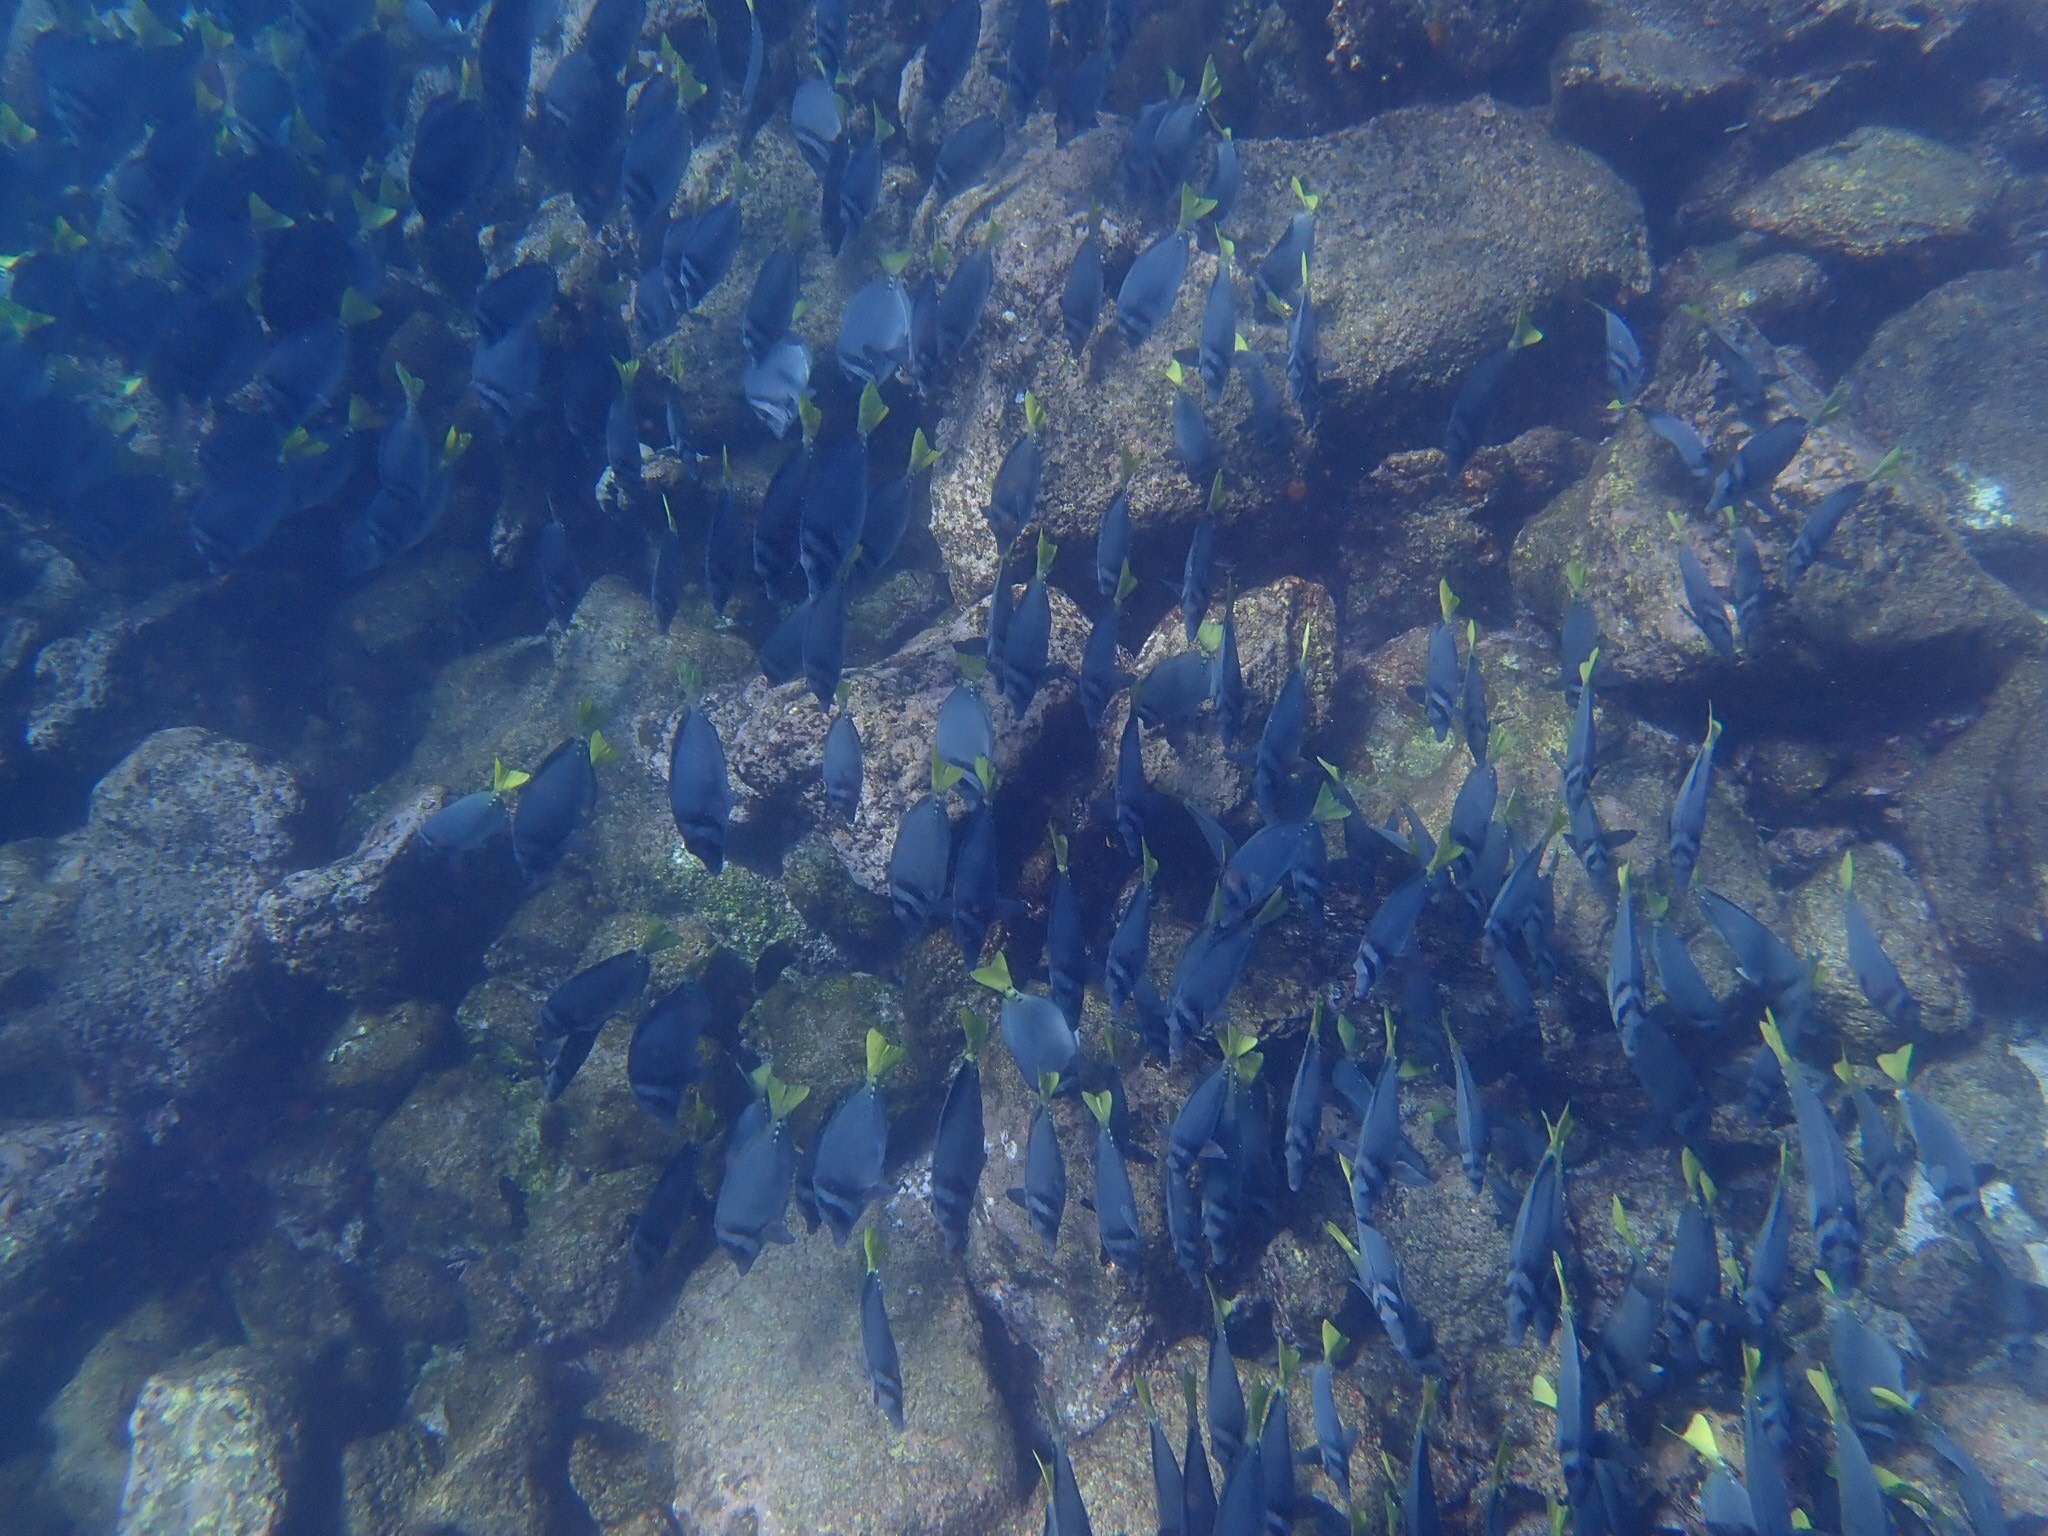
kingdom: Animalia
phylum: Chordata
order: Perciformes
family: Acanthuridae
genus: Prionurus
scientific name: Prionurus laticlavius
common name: Razor surgeonfish
